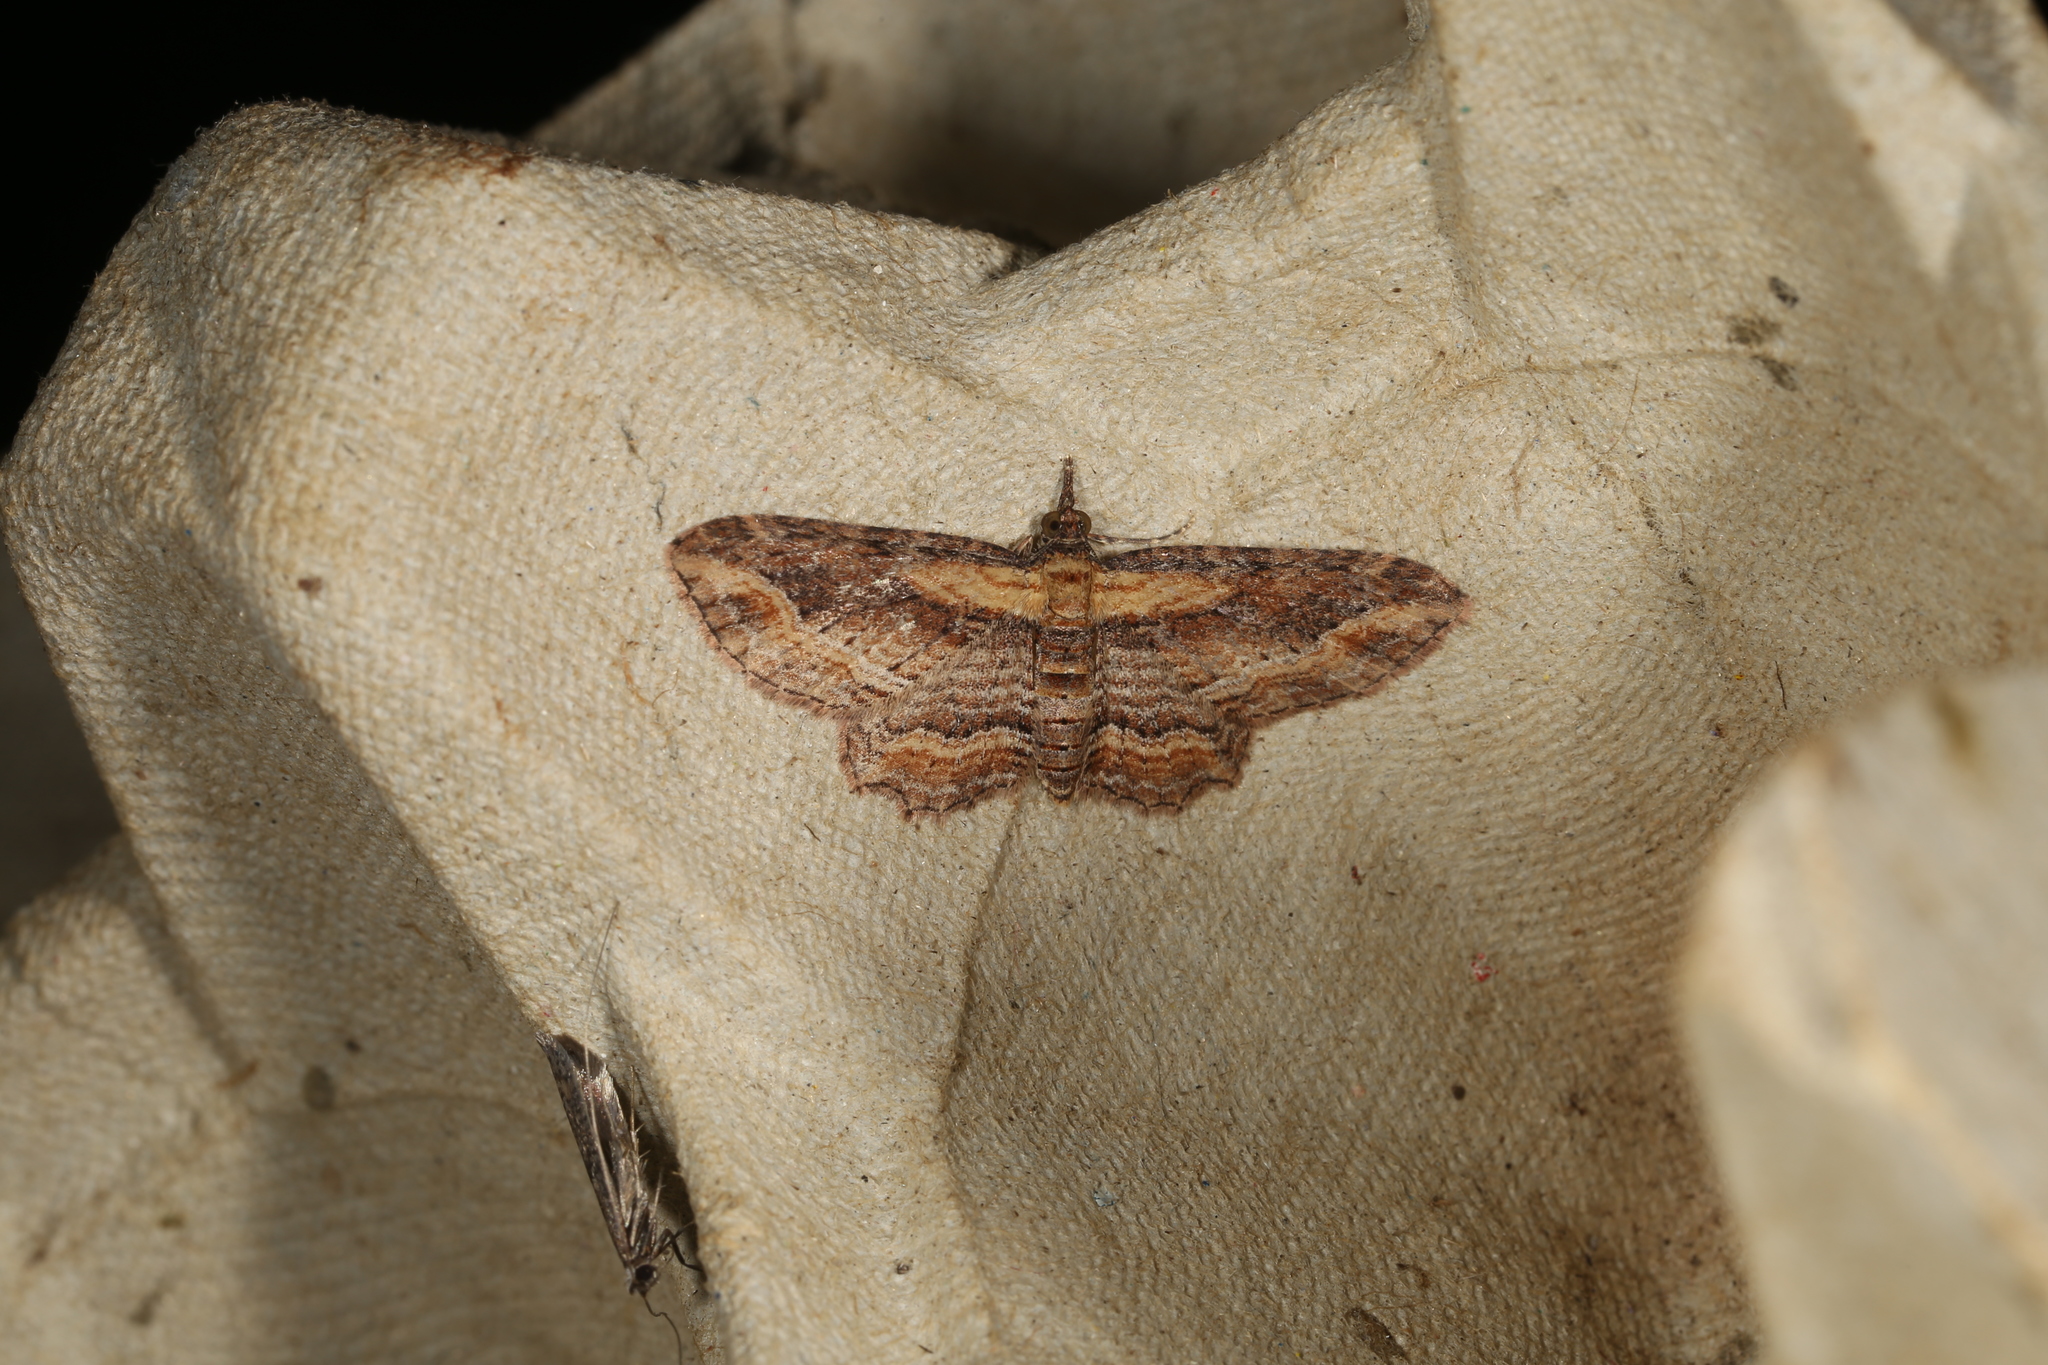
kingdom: Animalia
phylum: Arthropoda
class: Insecta
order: Lepidoptera
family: Geometridae
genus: Chloroclystis
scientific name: Chloroclystis filata
